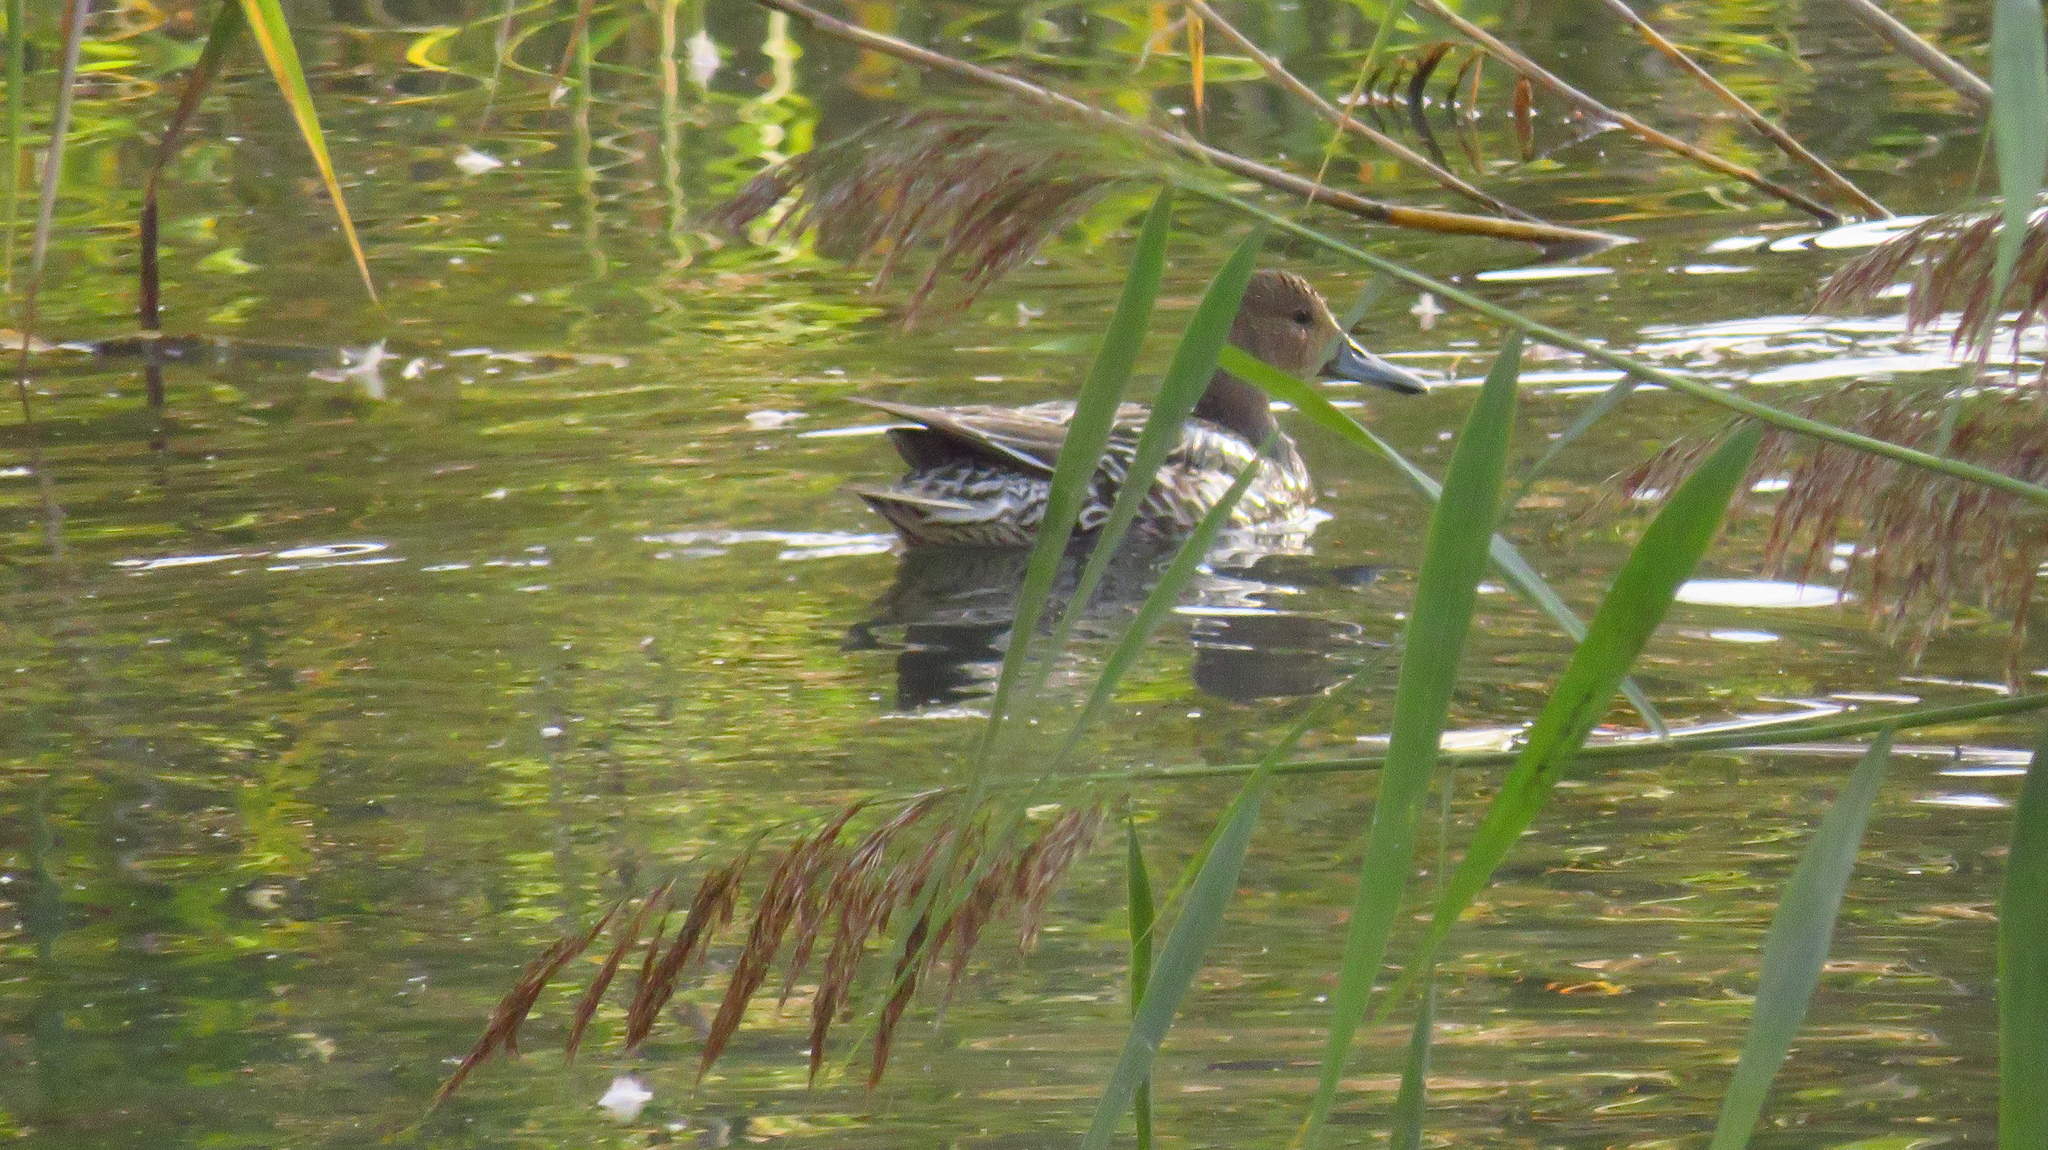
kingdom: Animalia
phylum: Chordata
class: Aves
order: Anseriformes
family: Anatidae
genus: Anas
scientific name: Anas acuta
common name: Northern pintail
